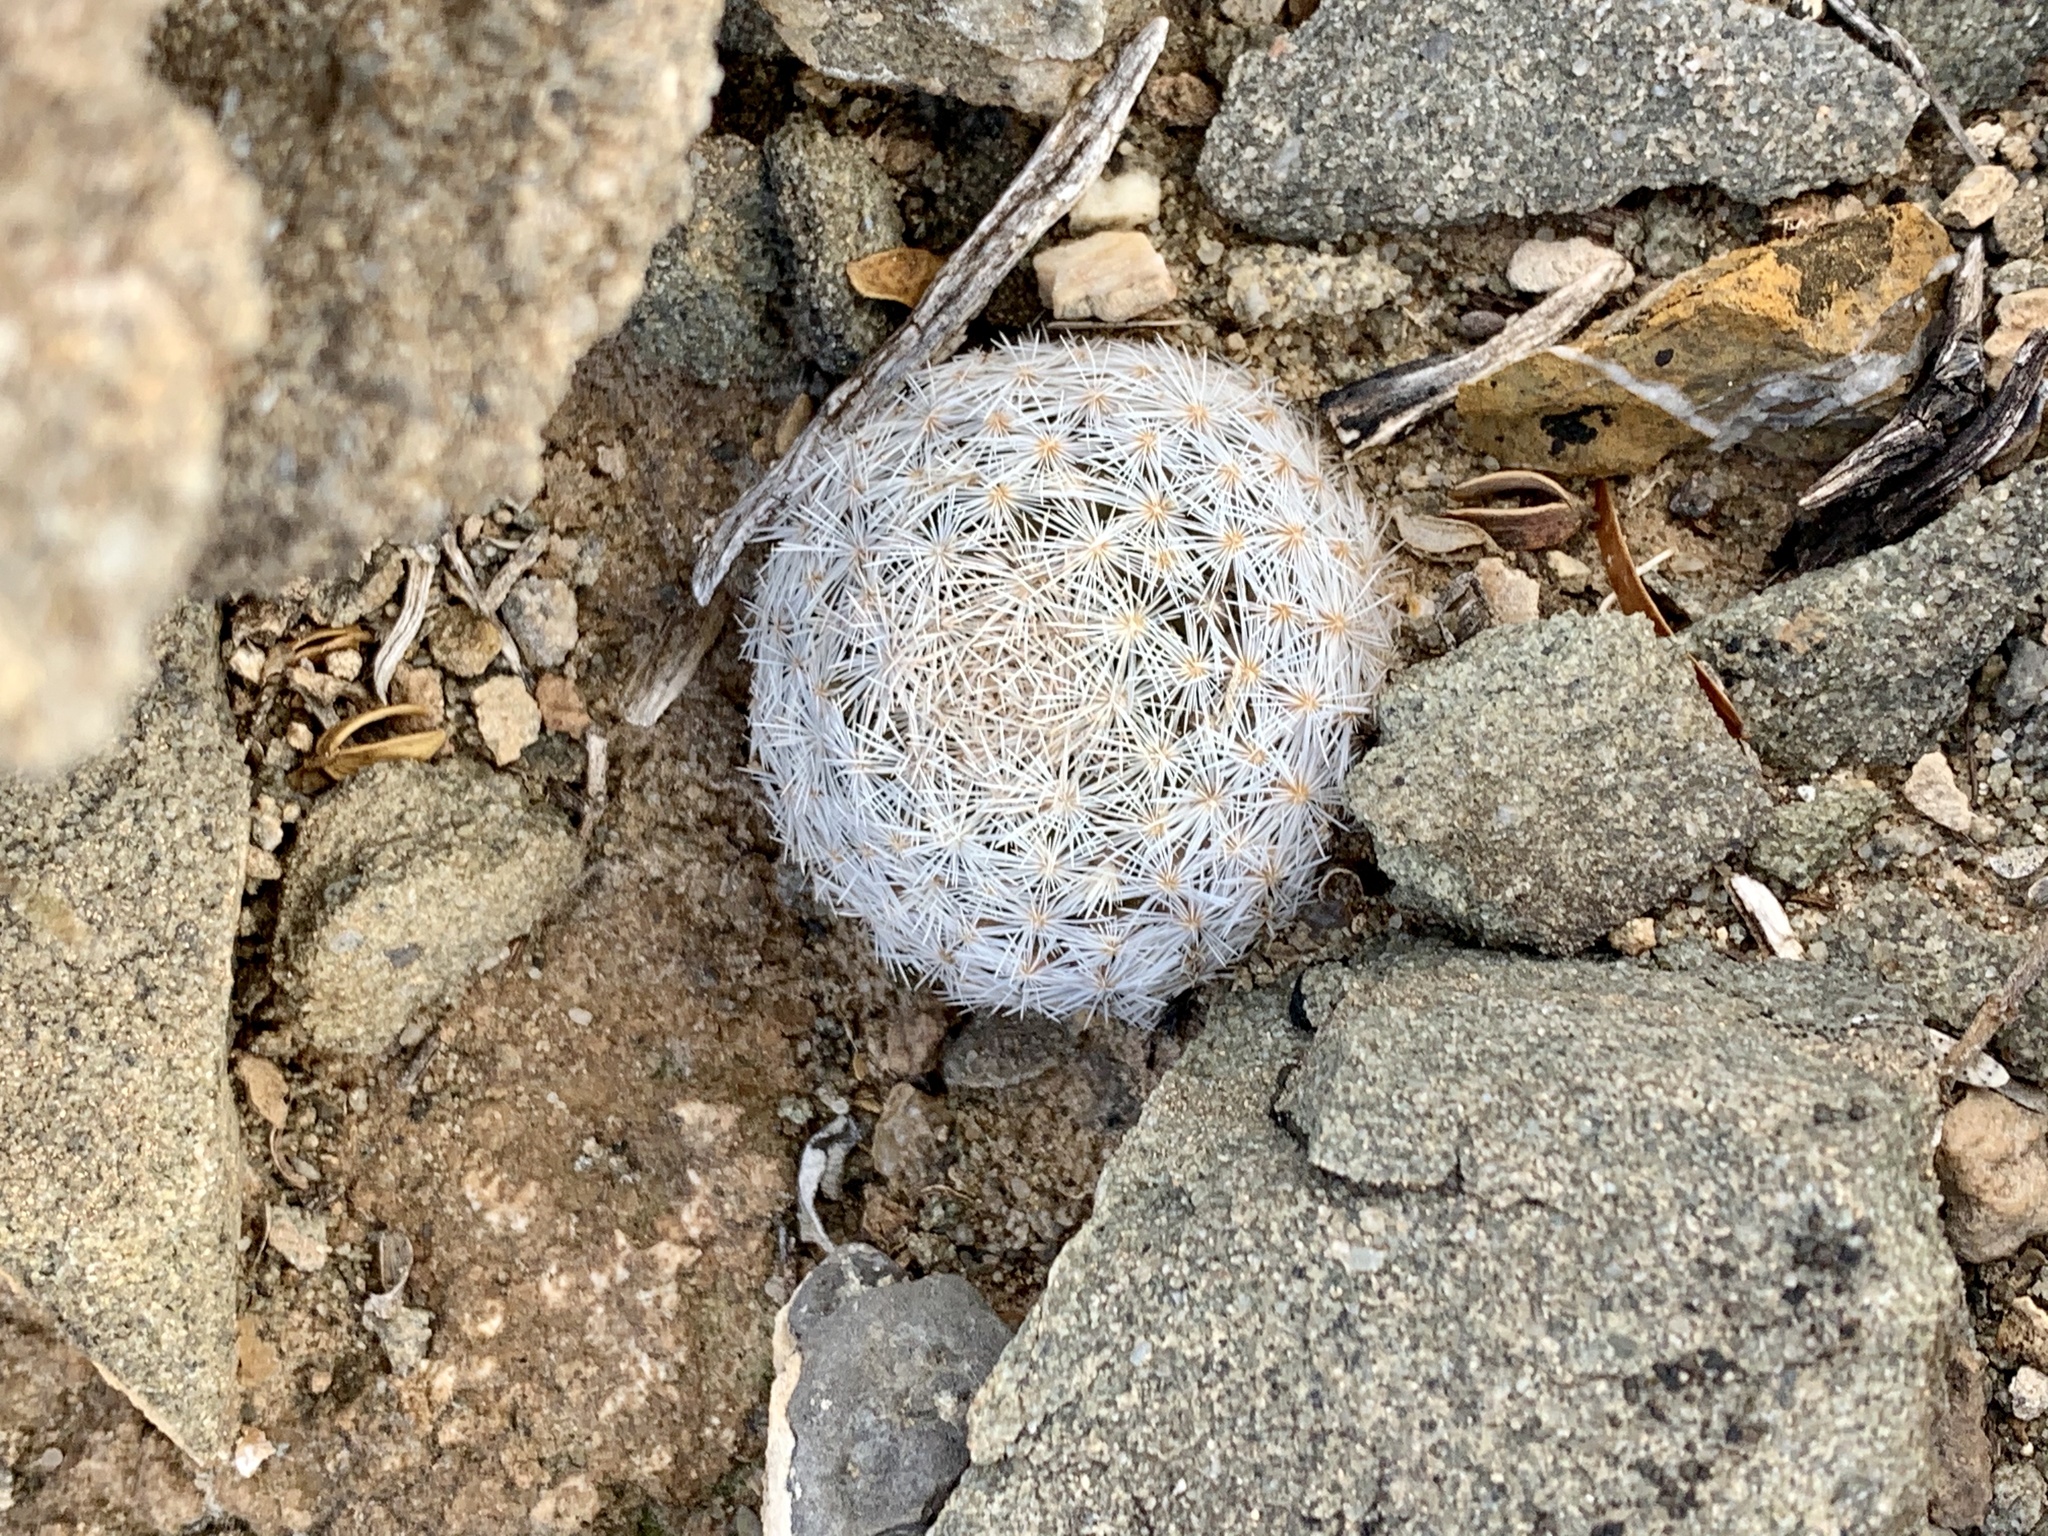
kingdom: Plantae
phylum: Tracheophyta
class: Magnoliopsida
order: Caryophyllales
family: Cactaceae
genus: Mammillaria
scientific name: Mammillaria lasiacantha
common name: Lace-spine nipple cactus
